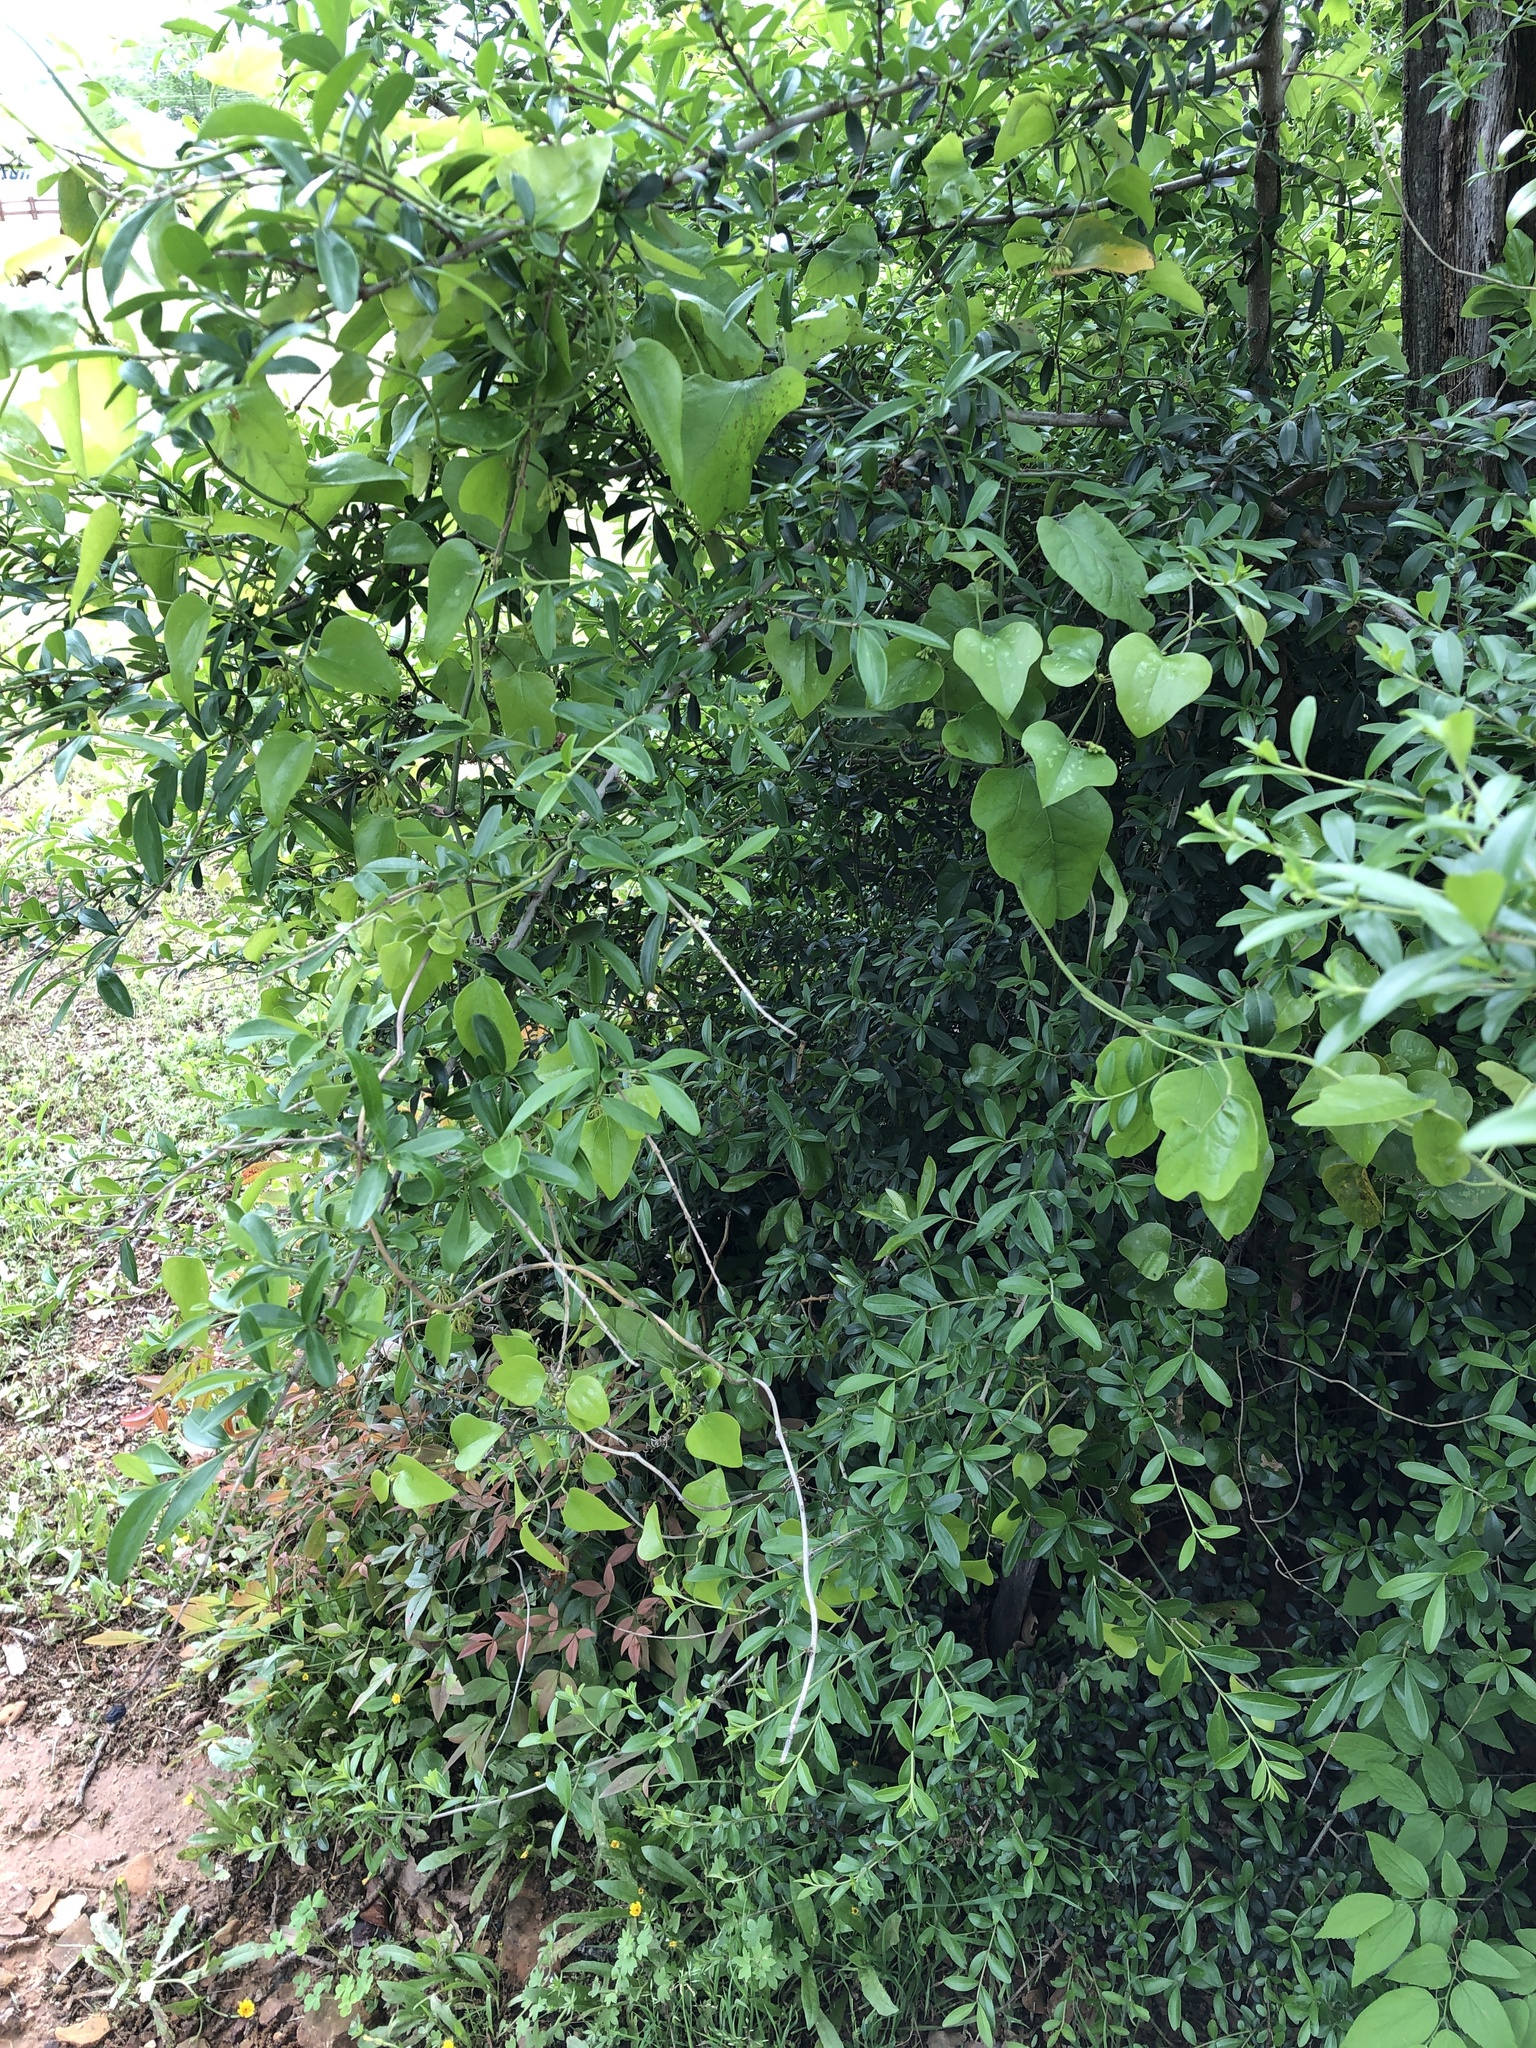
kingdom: Plantae
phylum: Tracheophyta
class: Liliopsida
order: Liliales
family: Smilacaceae
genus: Smilax
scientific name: Smilax bona-nox
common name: Catbrier
